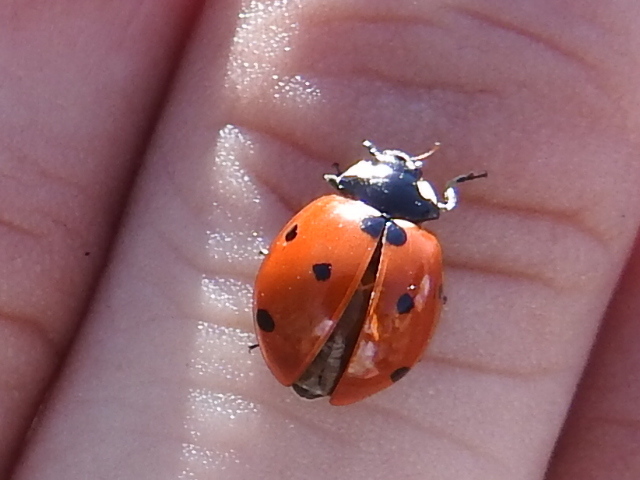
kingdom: Animalia
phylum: Arthropoda
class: Insecta
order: Coleoptera
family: Coccinellidae
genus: Coccinella
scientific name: Coccinella septempunctata
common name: Sevenspotted lady beetle
